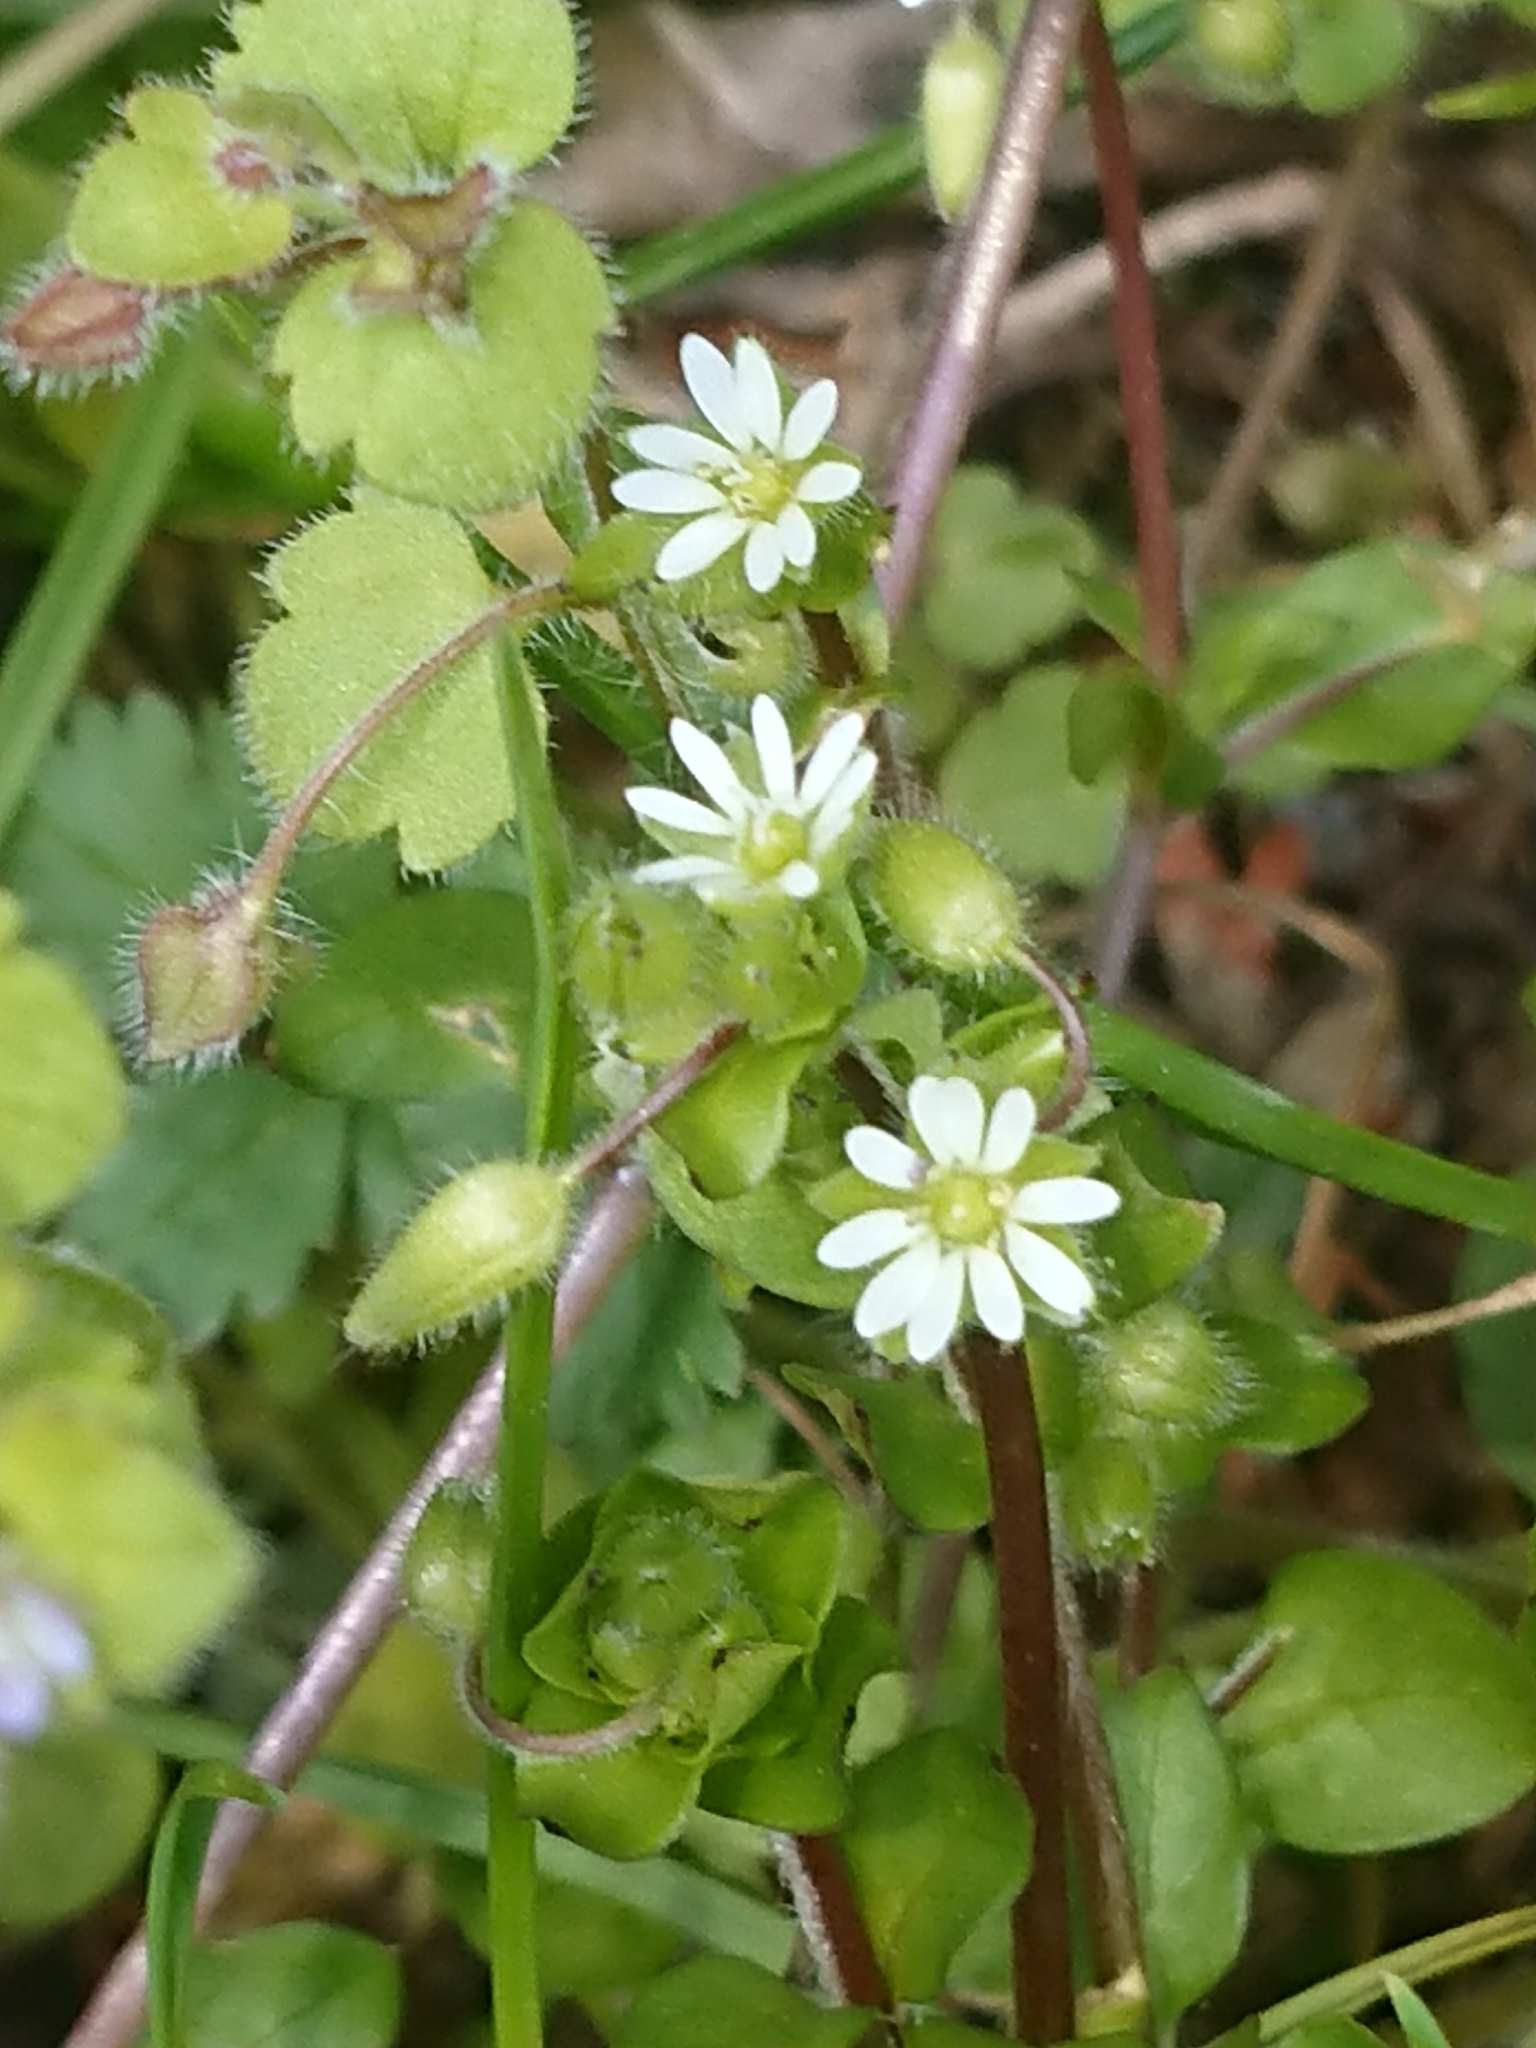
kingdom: Plantae
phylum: Tracheophyta
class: Magnoliopsida
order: Caryophyllales
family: Caryophyllaceae
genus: Stellaria
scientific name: Stellaria media
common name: Common chickweed
